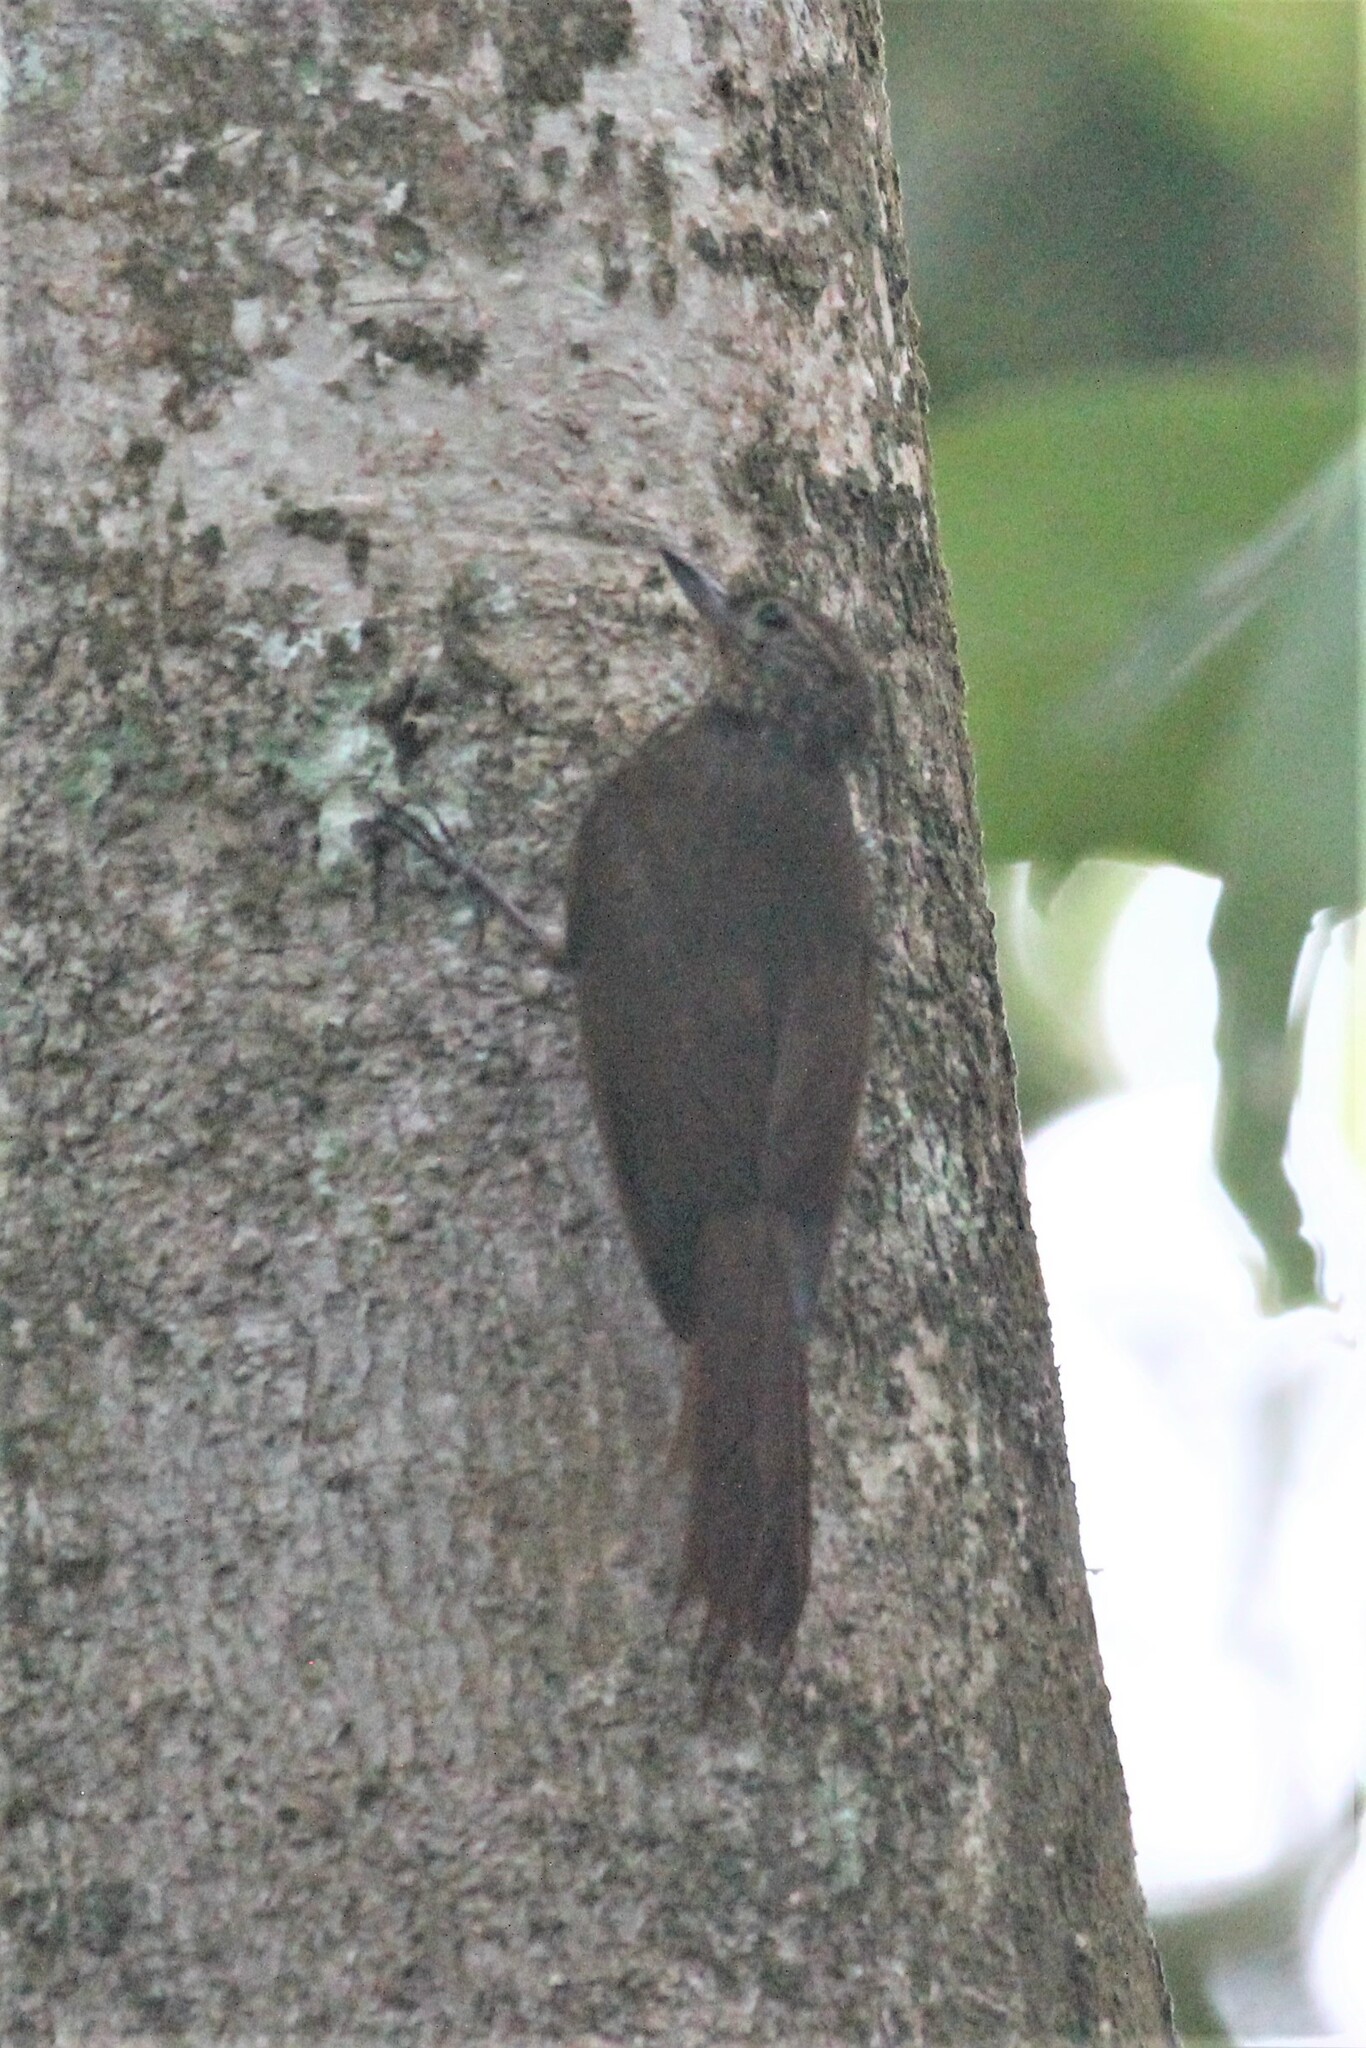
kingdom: Animalia
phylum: Chordata
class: Aves
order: Passeriformes
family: Furnariidae
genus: Glyphorynchus
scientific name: Glyphorynchus spirurus
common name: Wedge-billed woodcreeper
